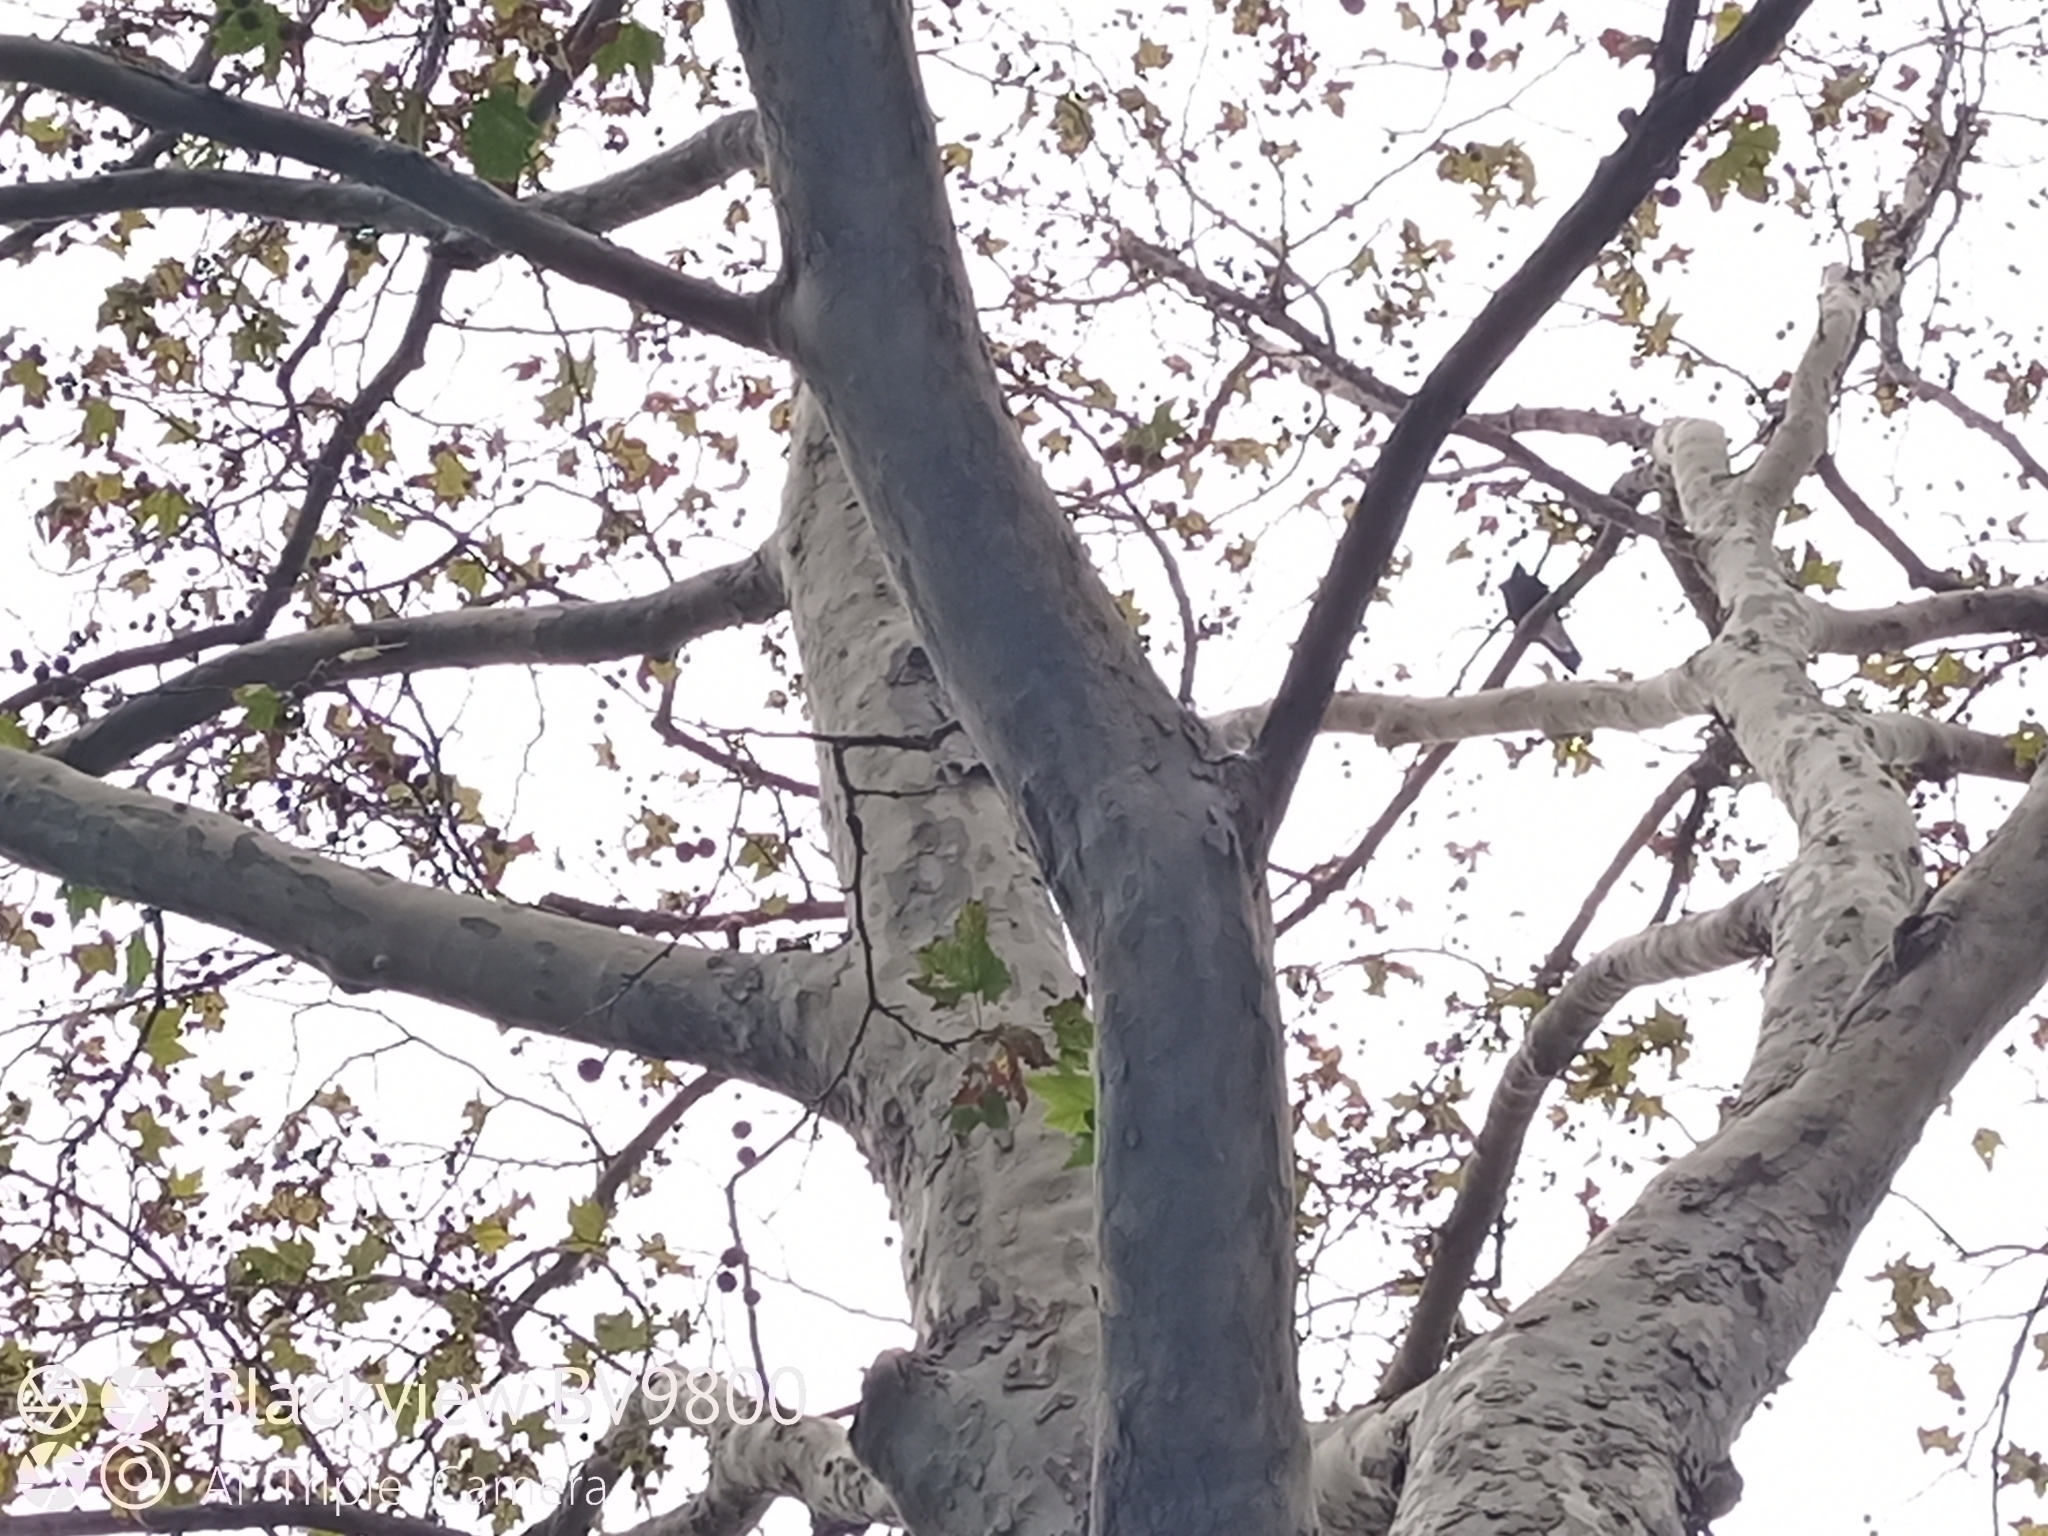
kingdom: Animalia
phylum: Chordata
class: Aves
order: Passeriformes
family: Cracticidae
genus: Gymnorhina
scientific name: Gymnorhina tibicen
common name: Australian magpie
